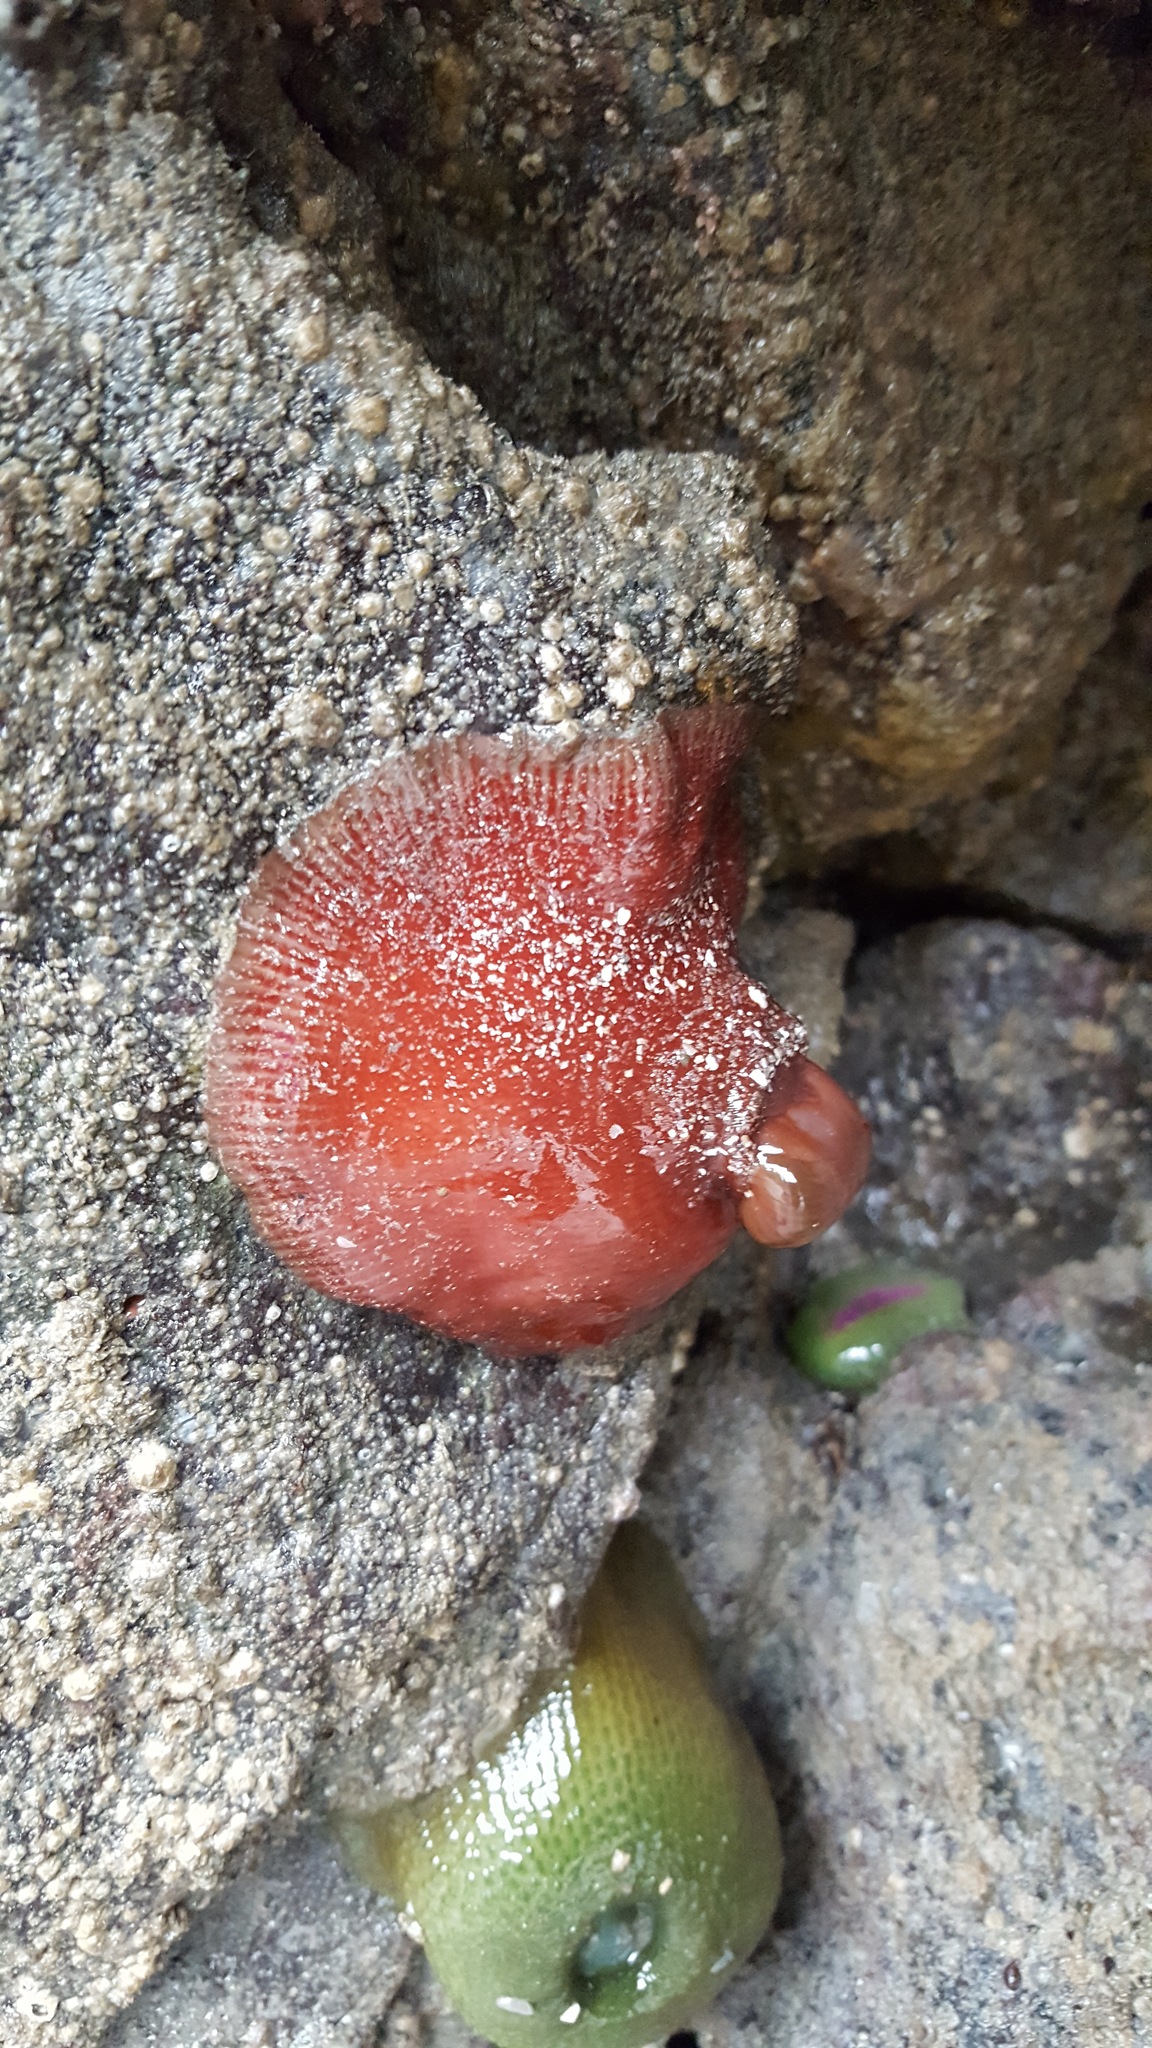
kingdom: Animalia
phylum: Cnidaria
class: Anthozoa
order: Actiniaria
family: Actiniidae
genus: Epiactis
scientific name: Epiactis prolifera
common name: Brooding anemone
